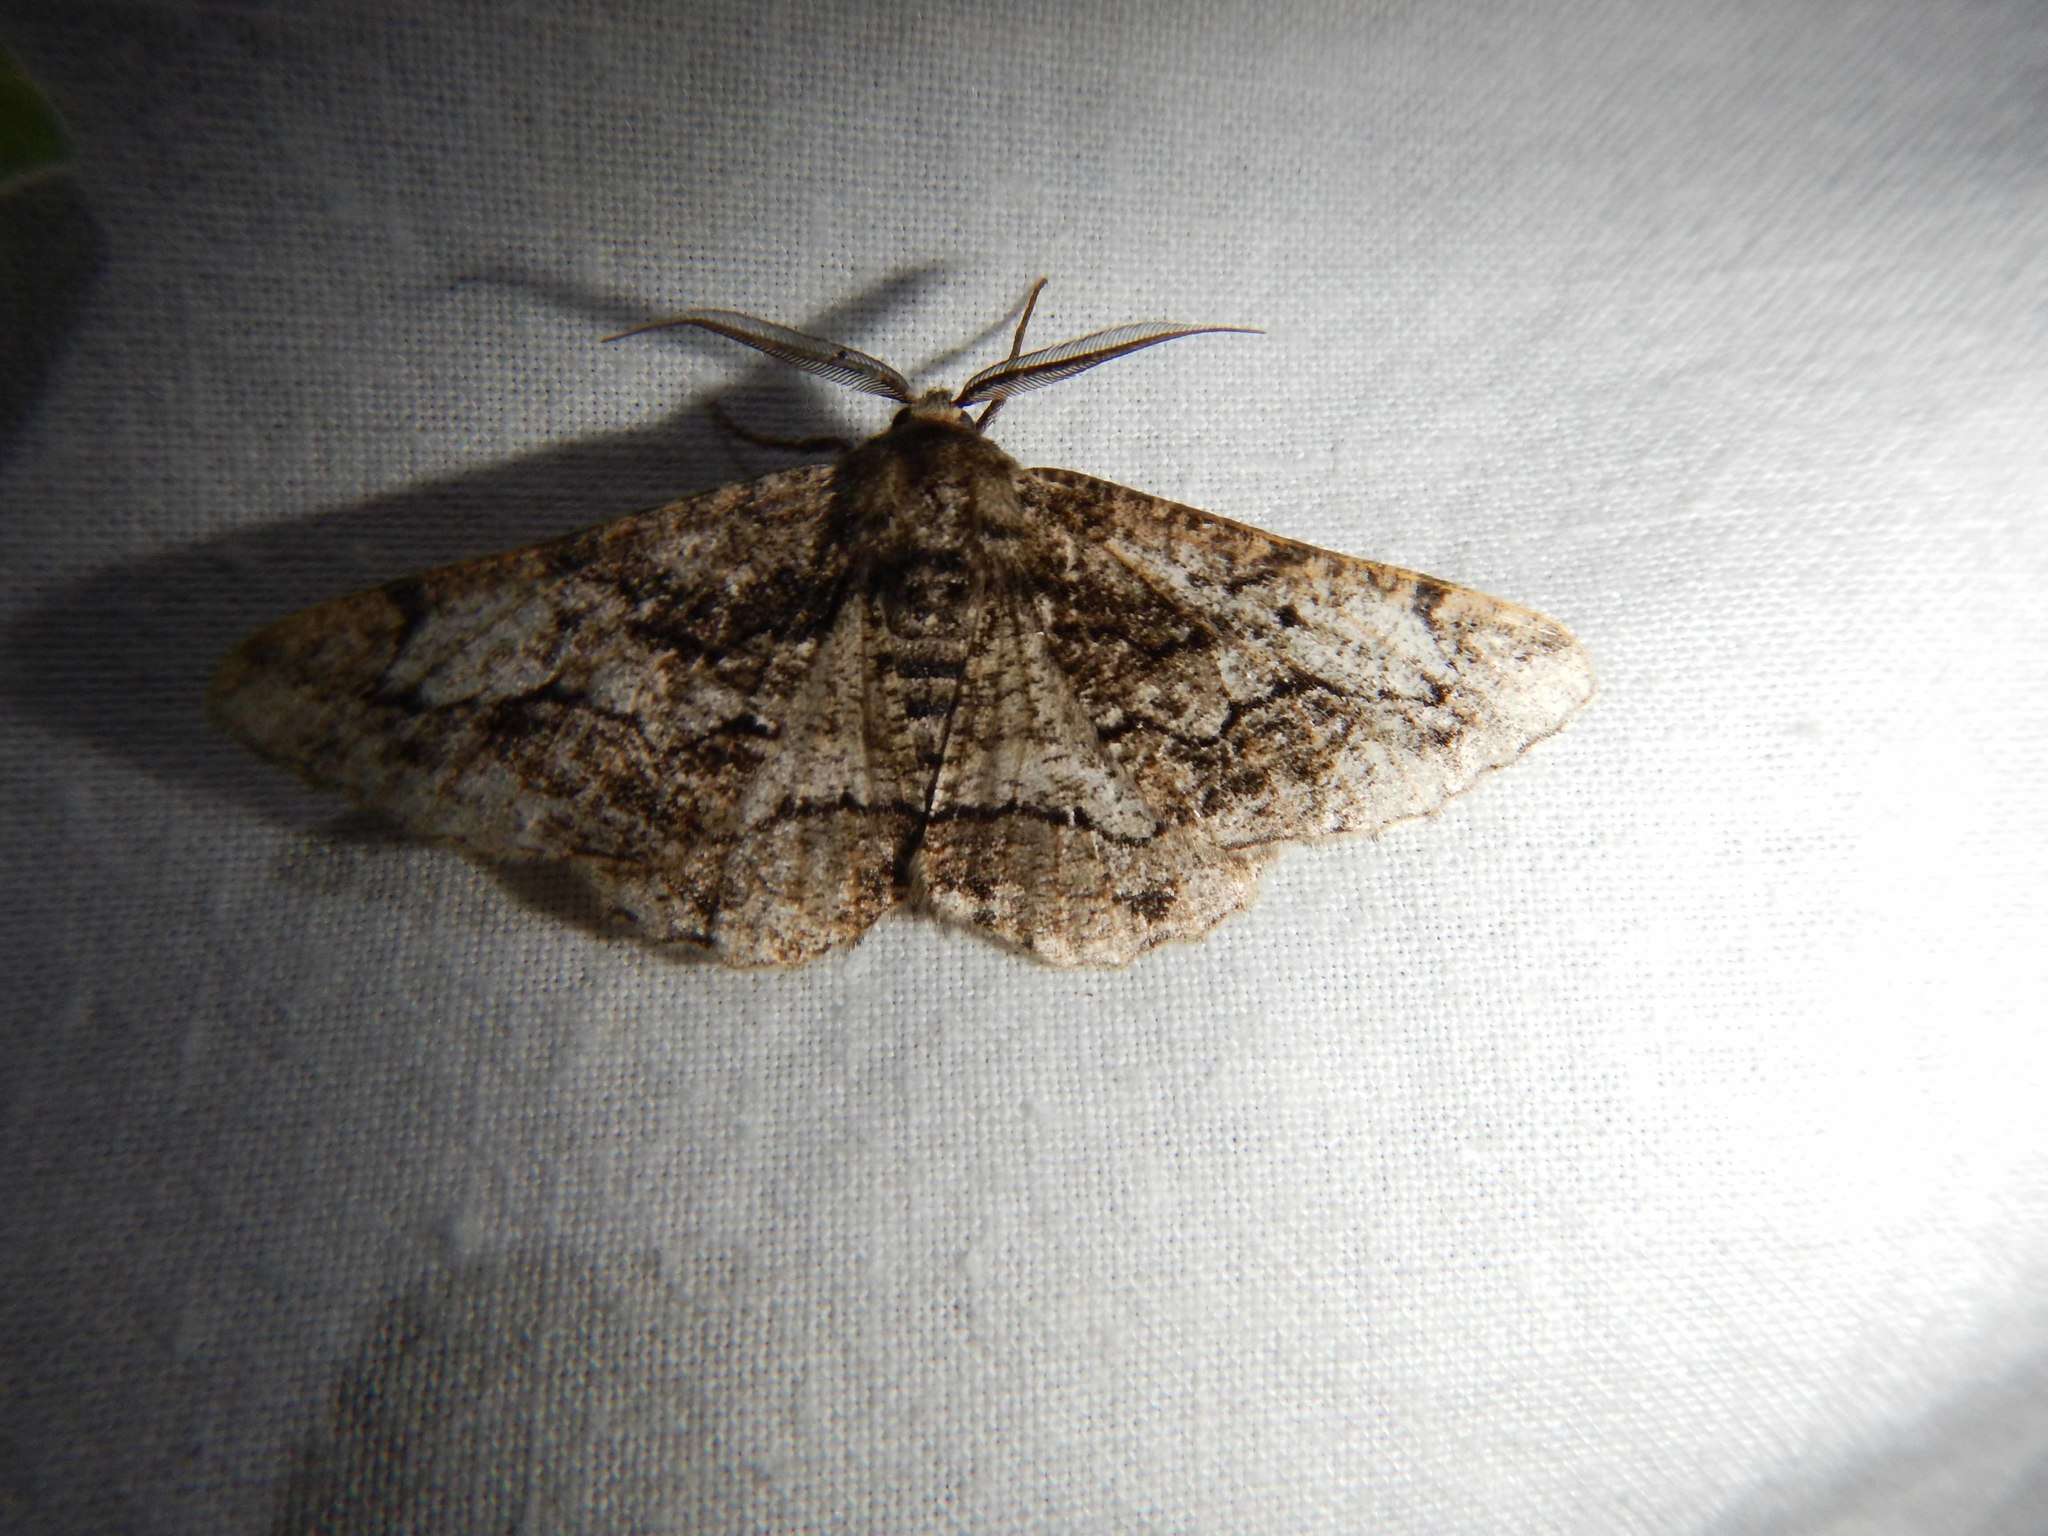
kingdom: Animalia
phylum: Arthropoda
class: Insecta
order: Lepidoptera
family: Geometridae
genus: Synopsia
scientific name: Synopsia sociaria
